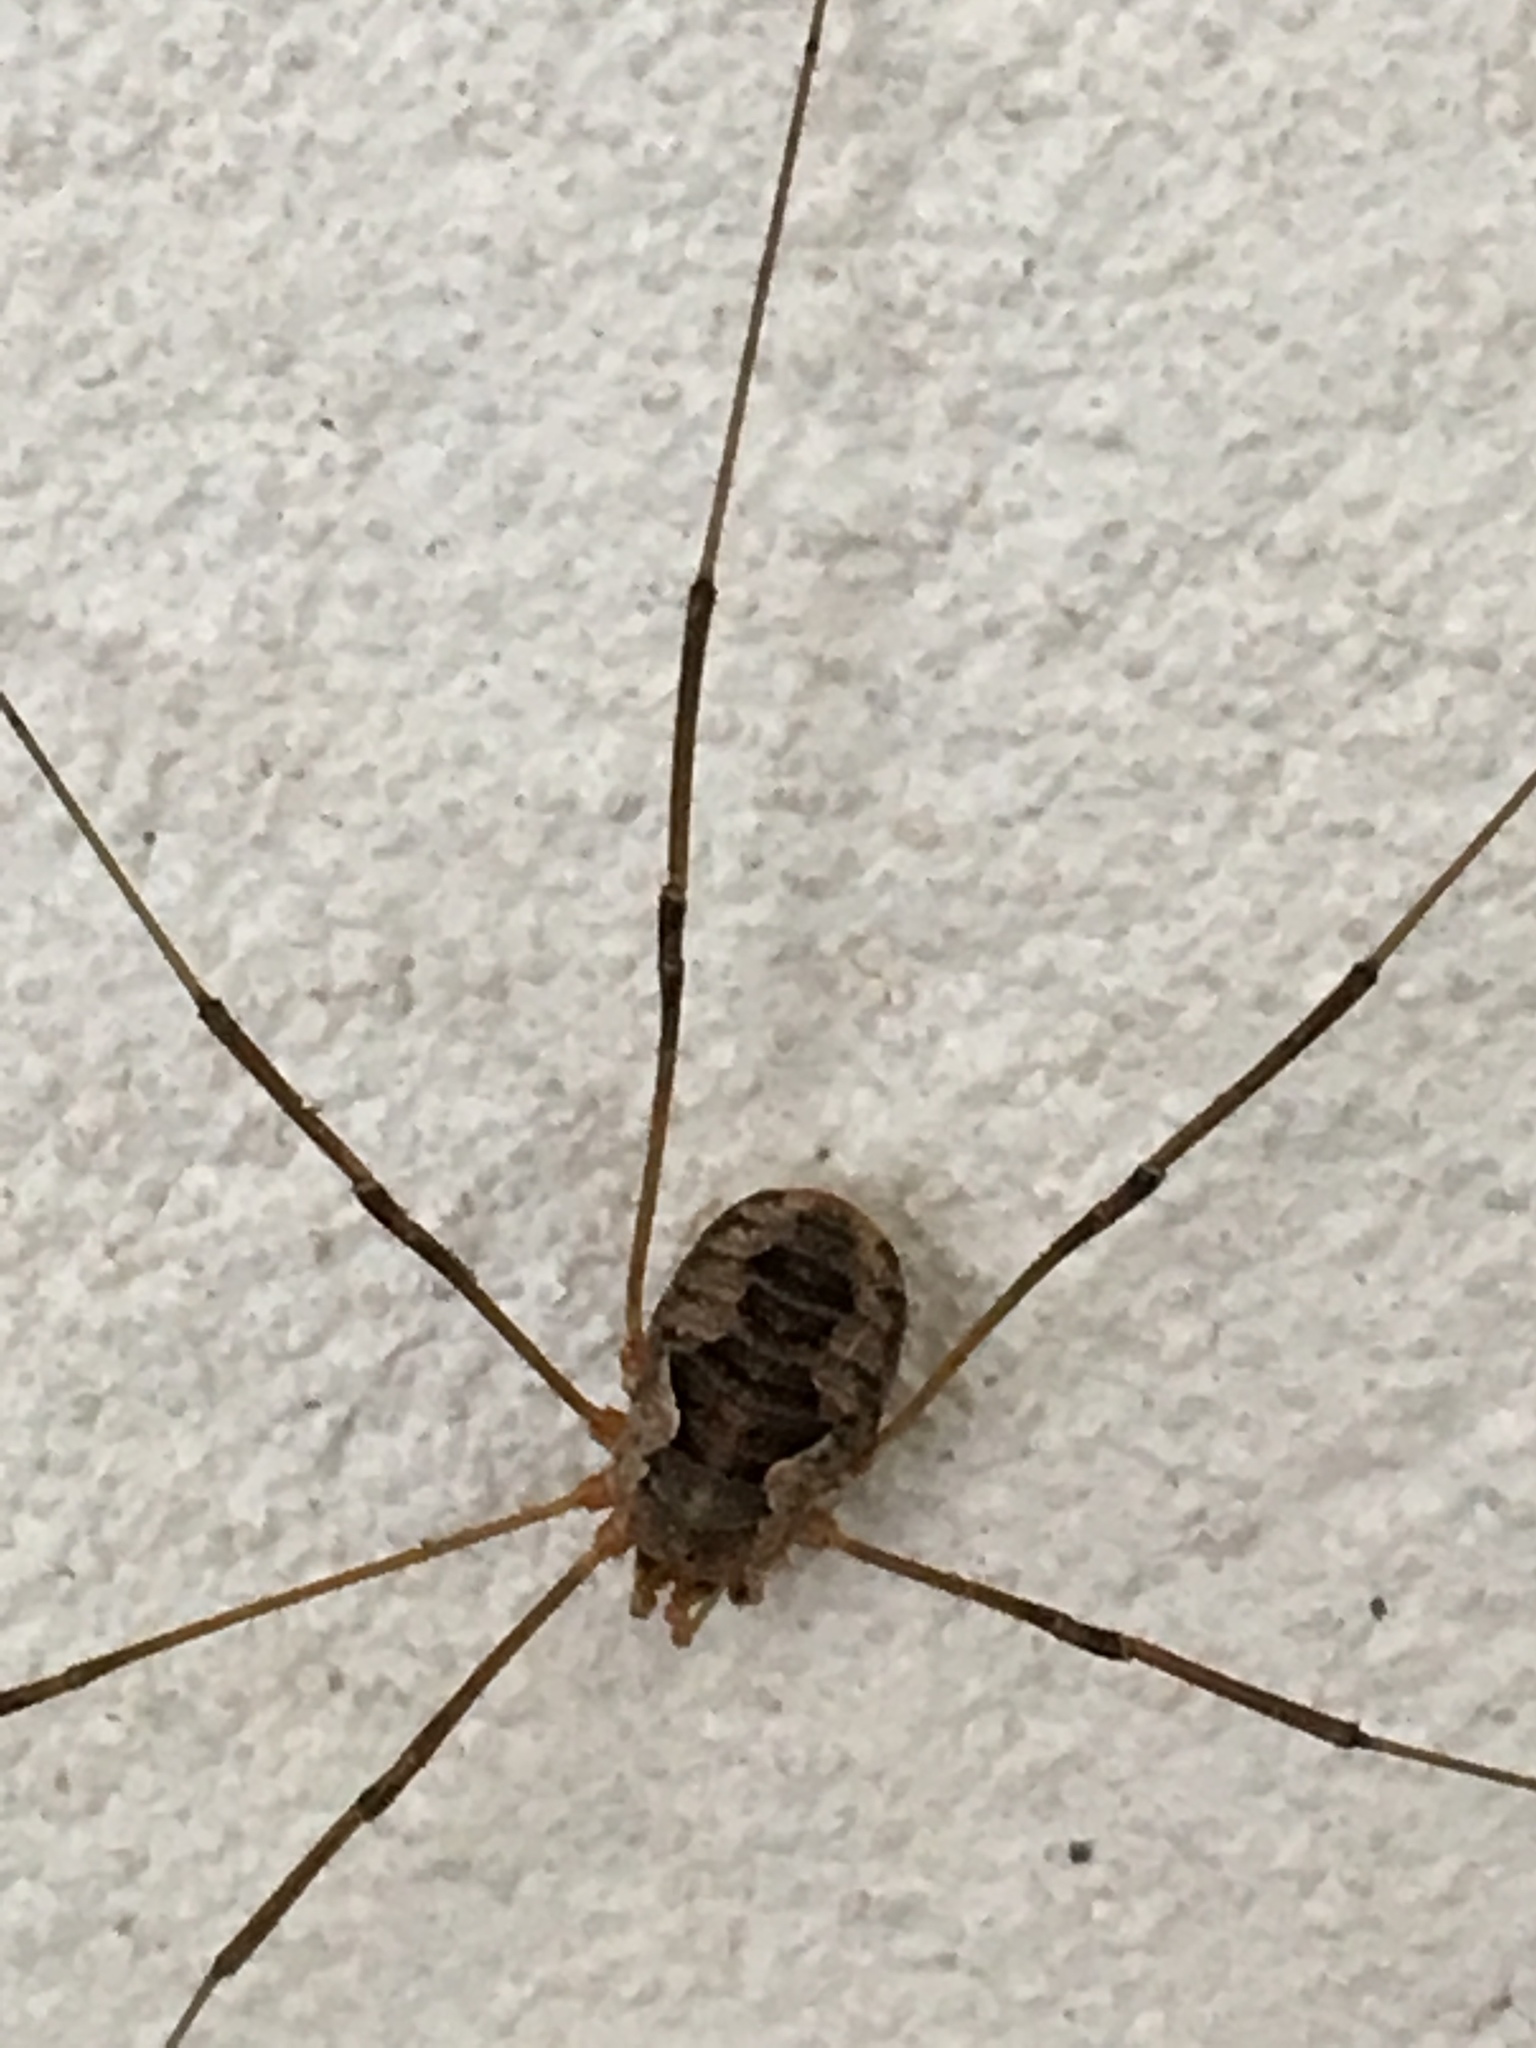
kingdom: Animalia
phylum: Arthropoda
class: Arachnida
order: Opiliones
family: Phalangiidae
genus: Phalangium
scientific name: Phalangium opilio
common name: Daddy longleg
